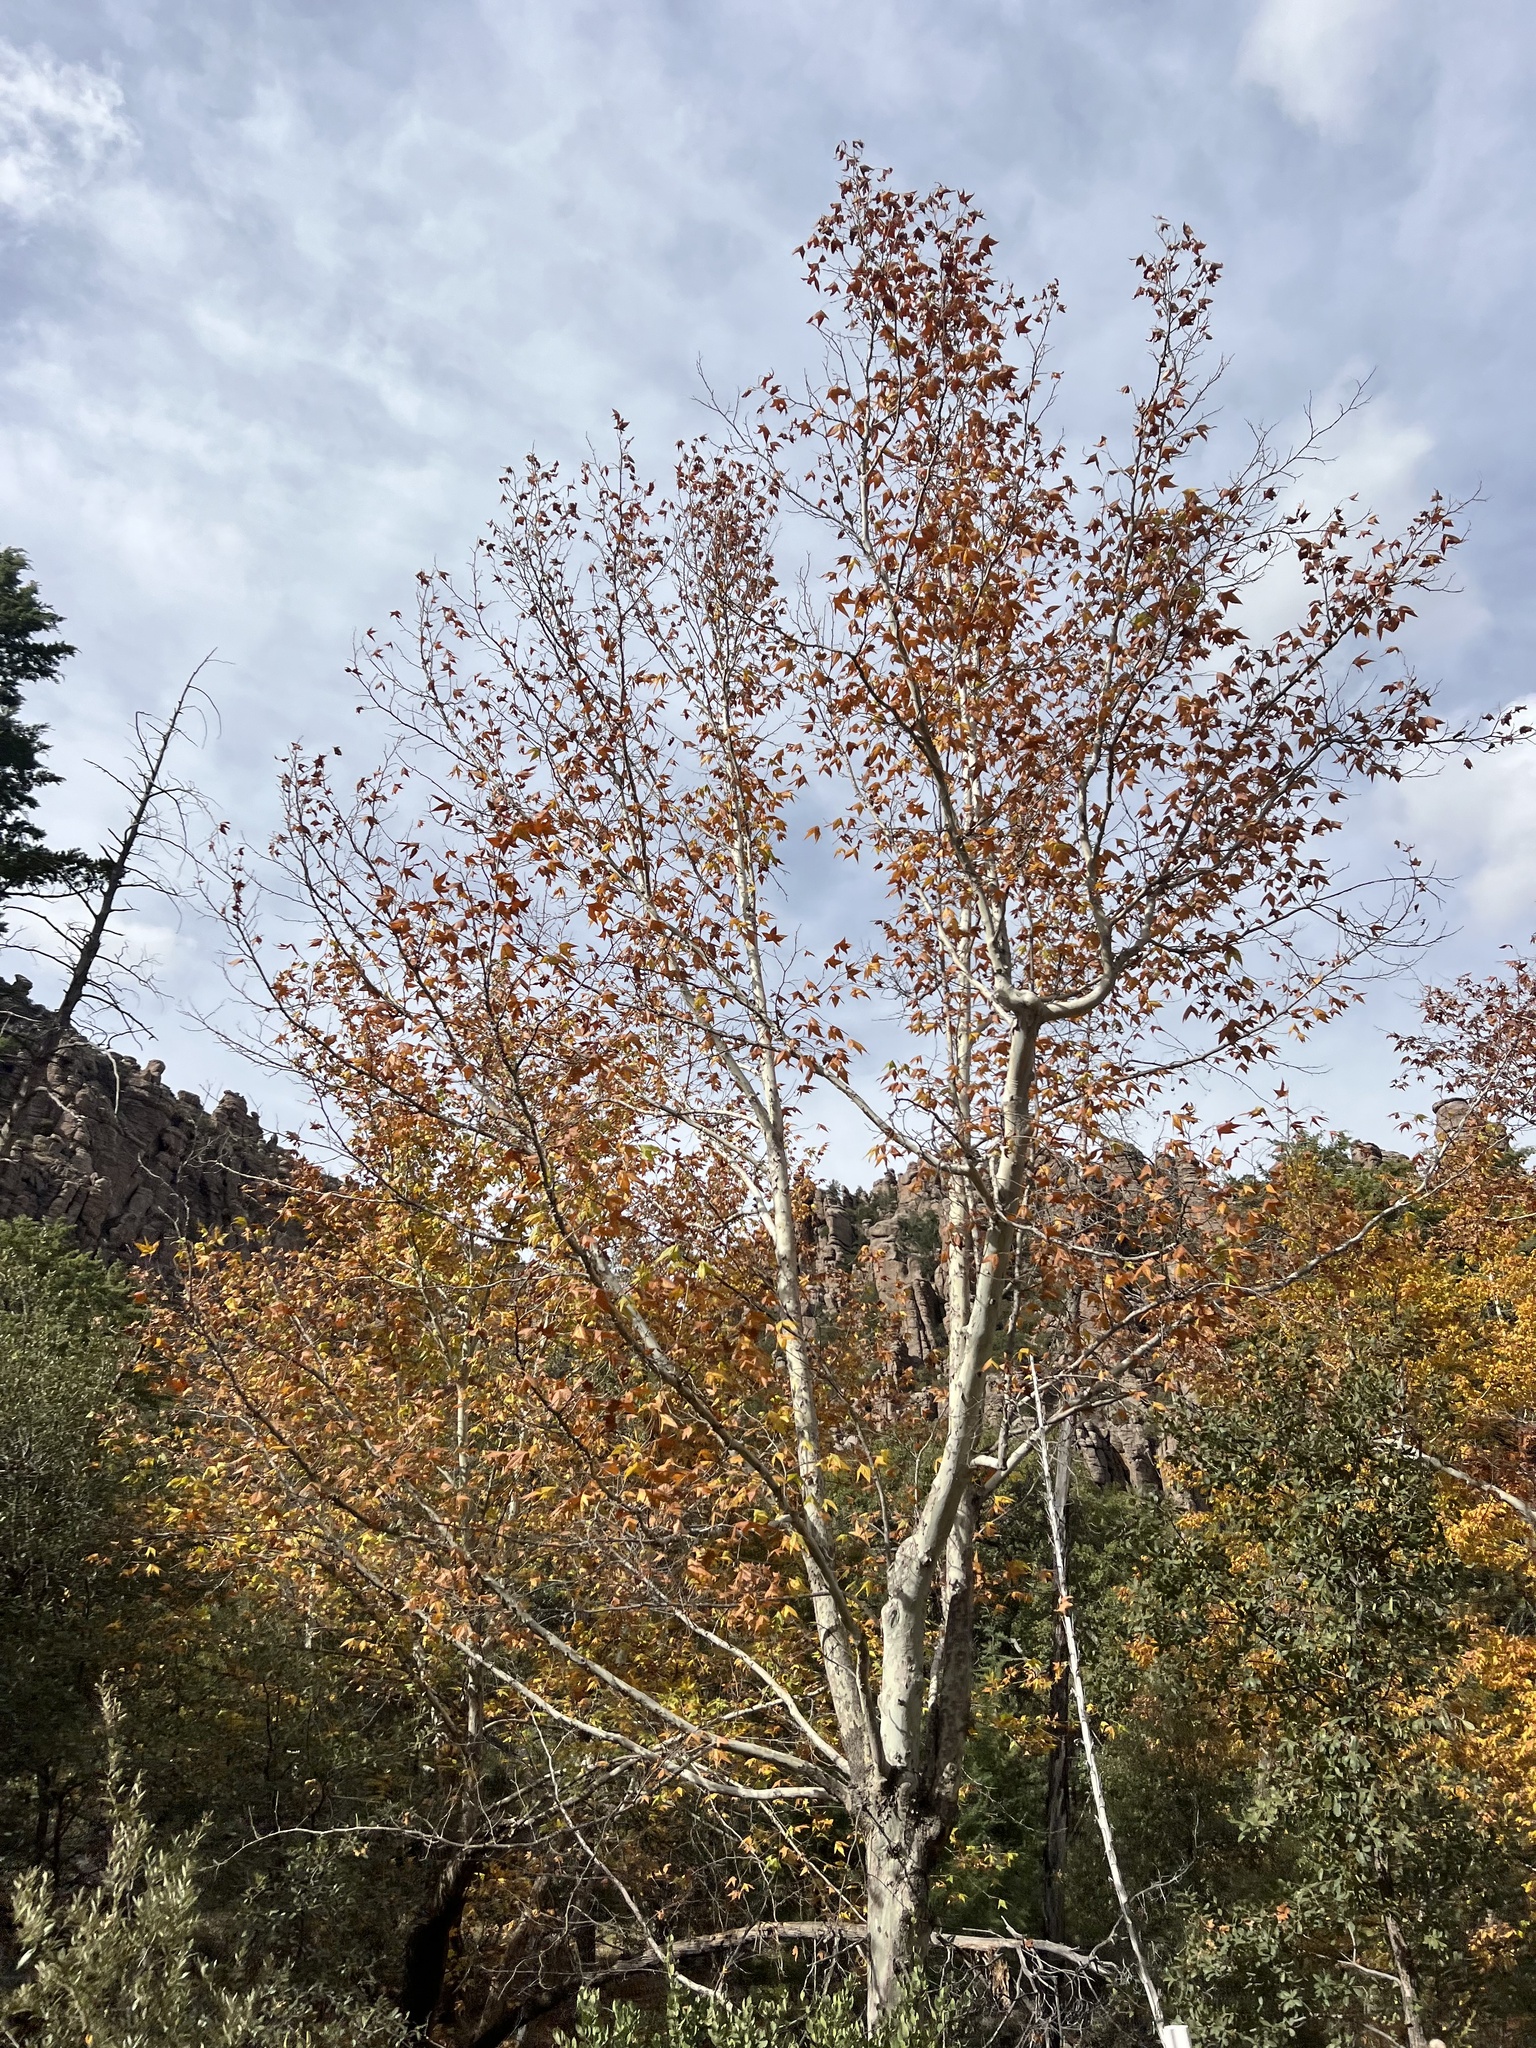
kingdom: Plantae
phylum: Tracheophyta
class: Magnoliopsida
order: Proteales
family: Platanaceae
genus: Platanus
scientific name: Platanus wrightii
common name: Arizona sycamore
